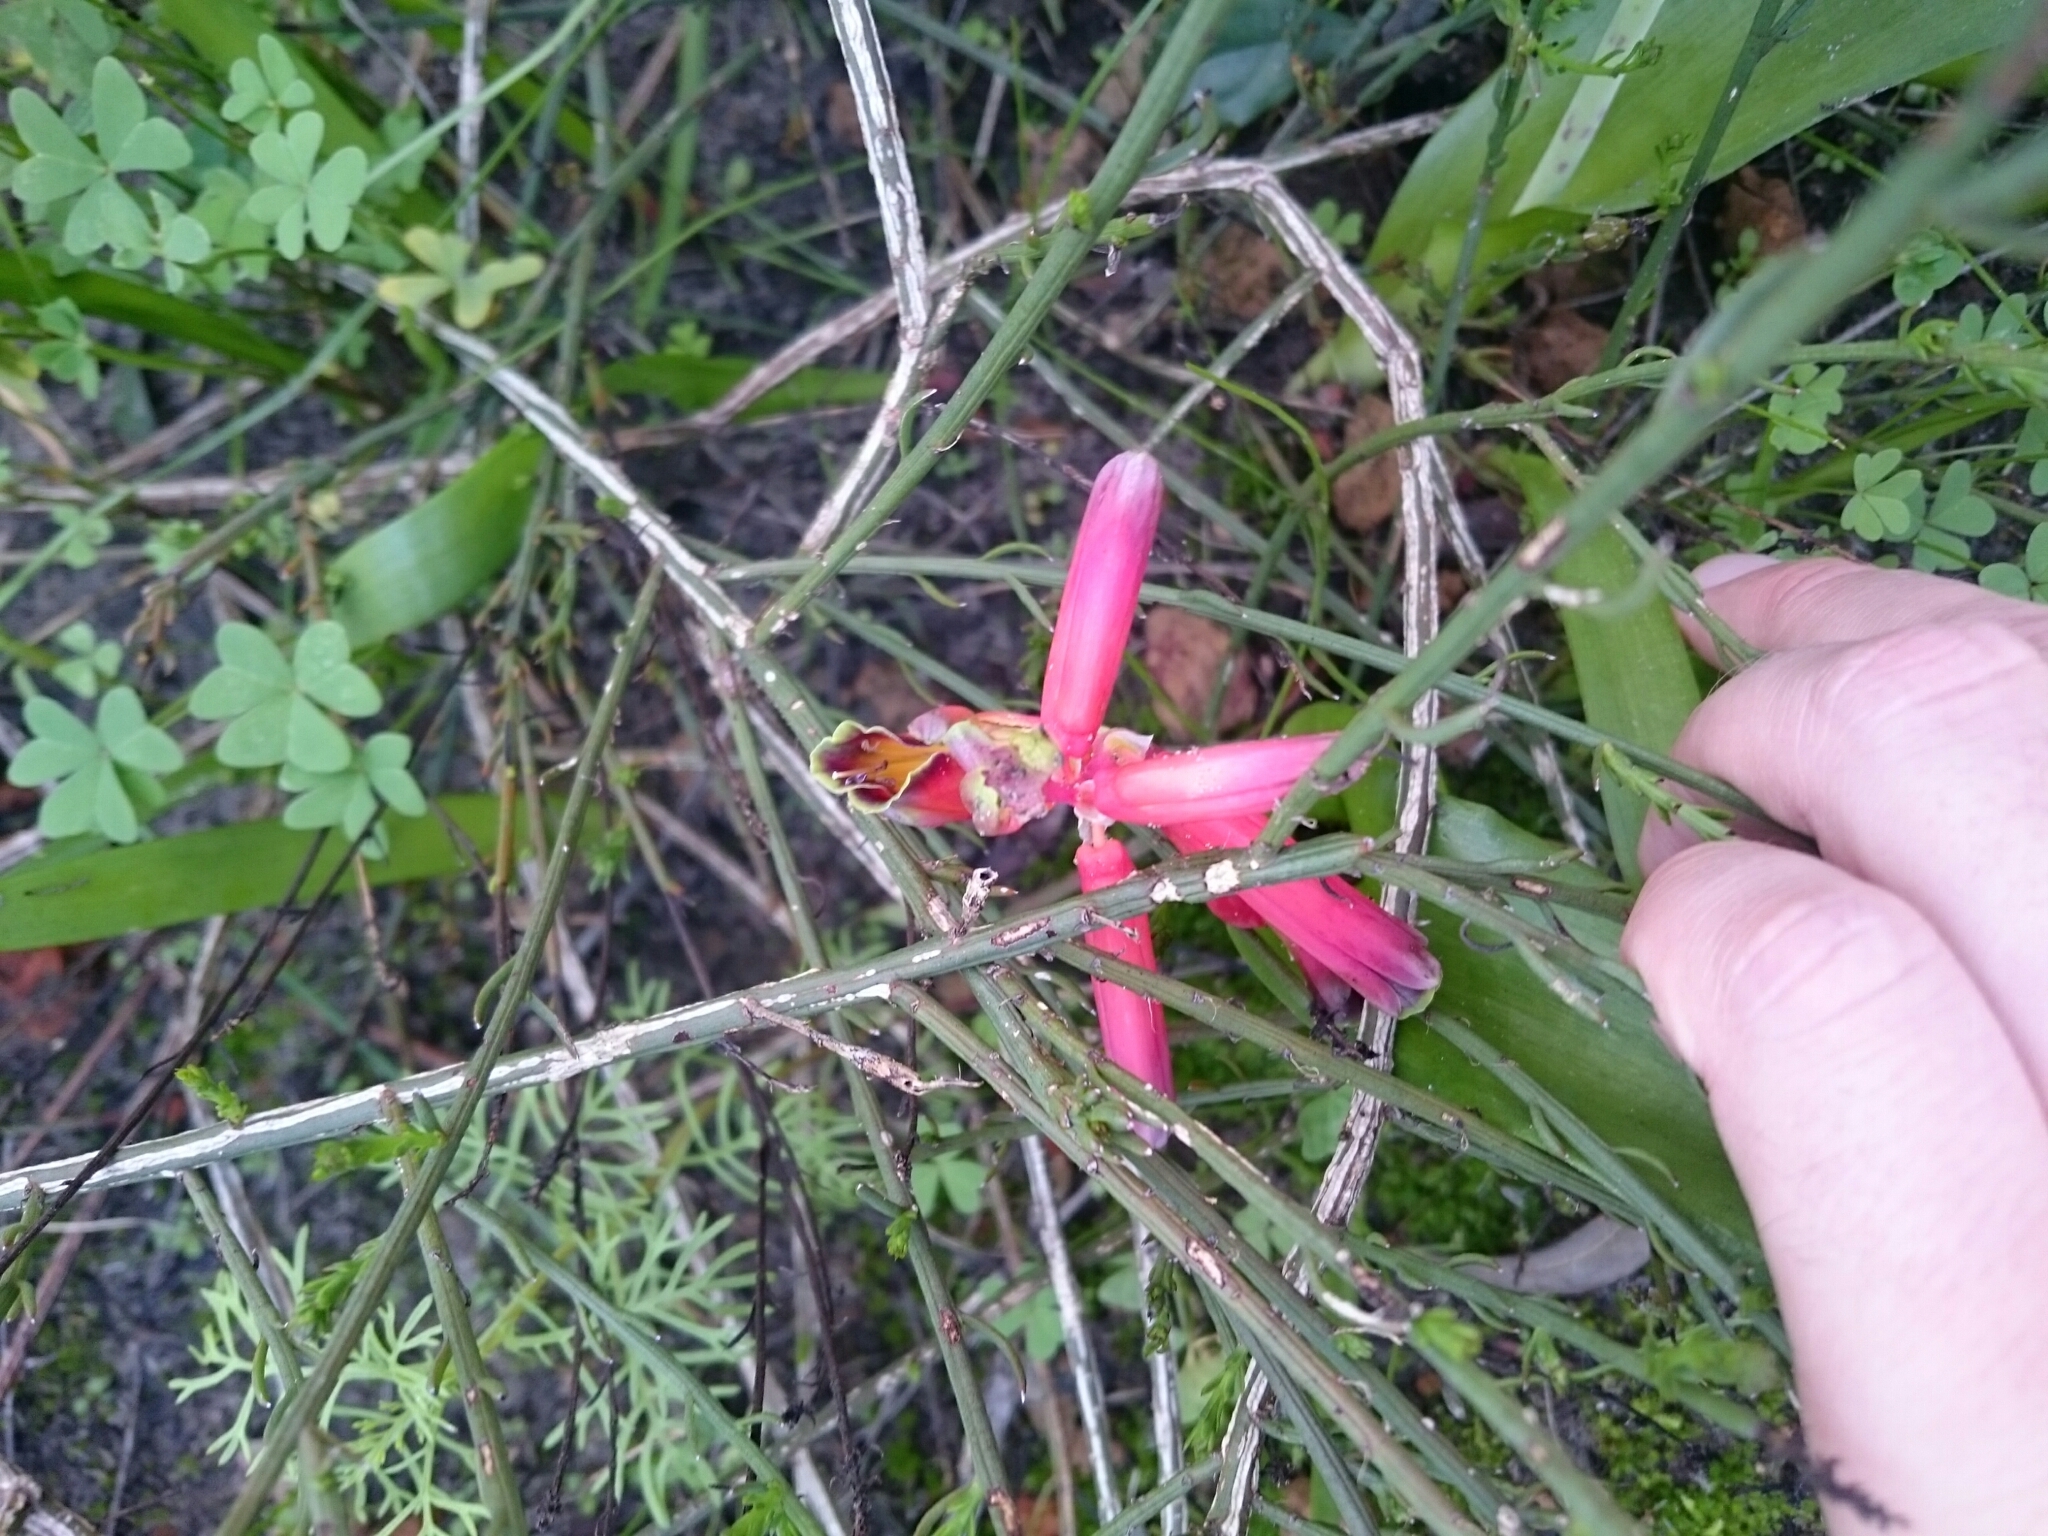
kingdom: Plantae
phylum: Tracheophyta
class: Liliopsida
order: Asparagales
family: Asparagaceae
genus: Lachenalia
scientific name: Lachenalia punctata
